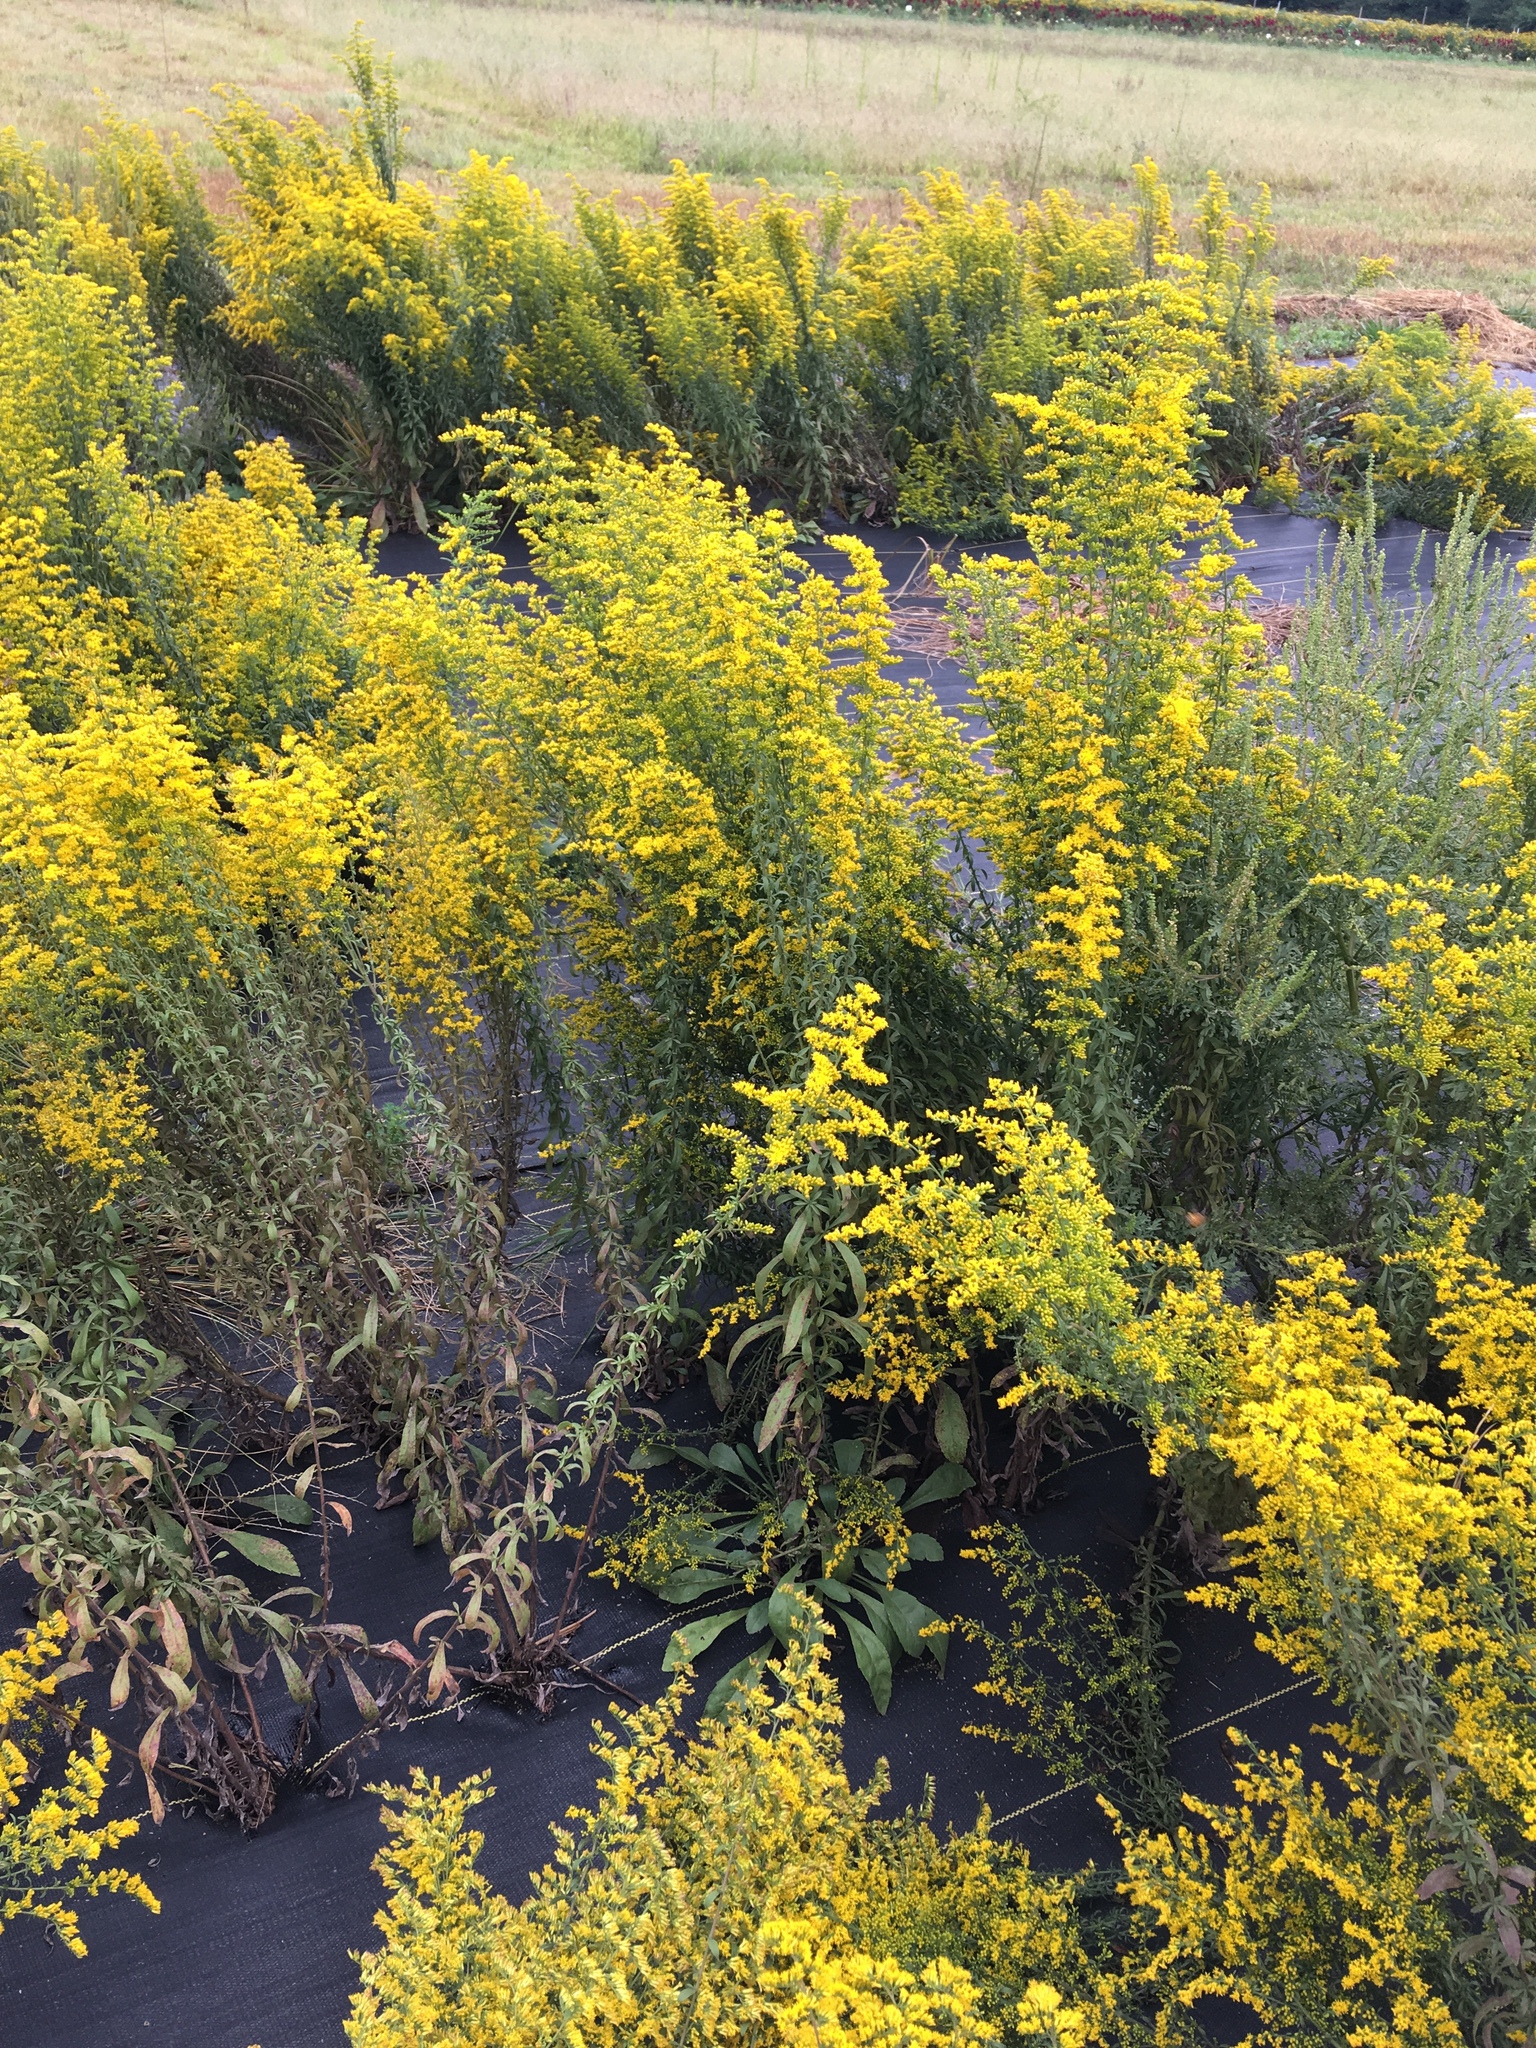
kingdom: Plantae
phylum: Tracheophyta
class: Magnoliopsida
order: Asterales
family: Asteraceae
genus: Solidago
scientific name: Solidago nemoralis
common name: Grey goldenrod
